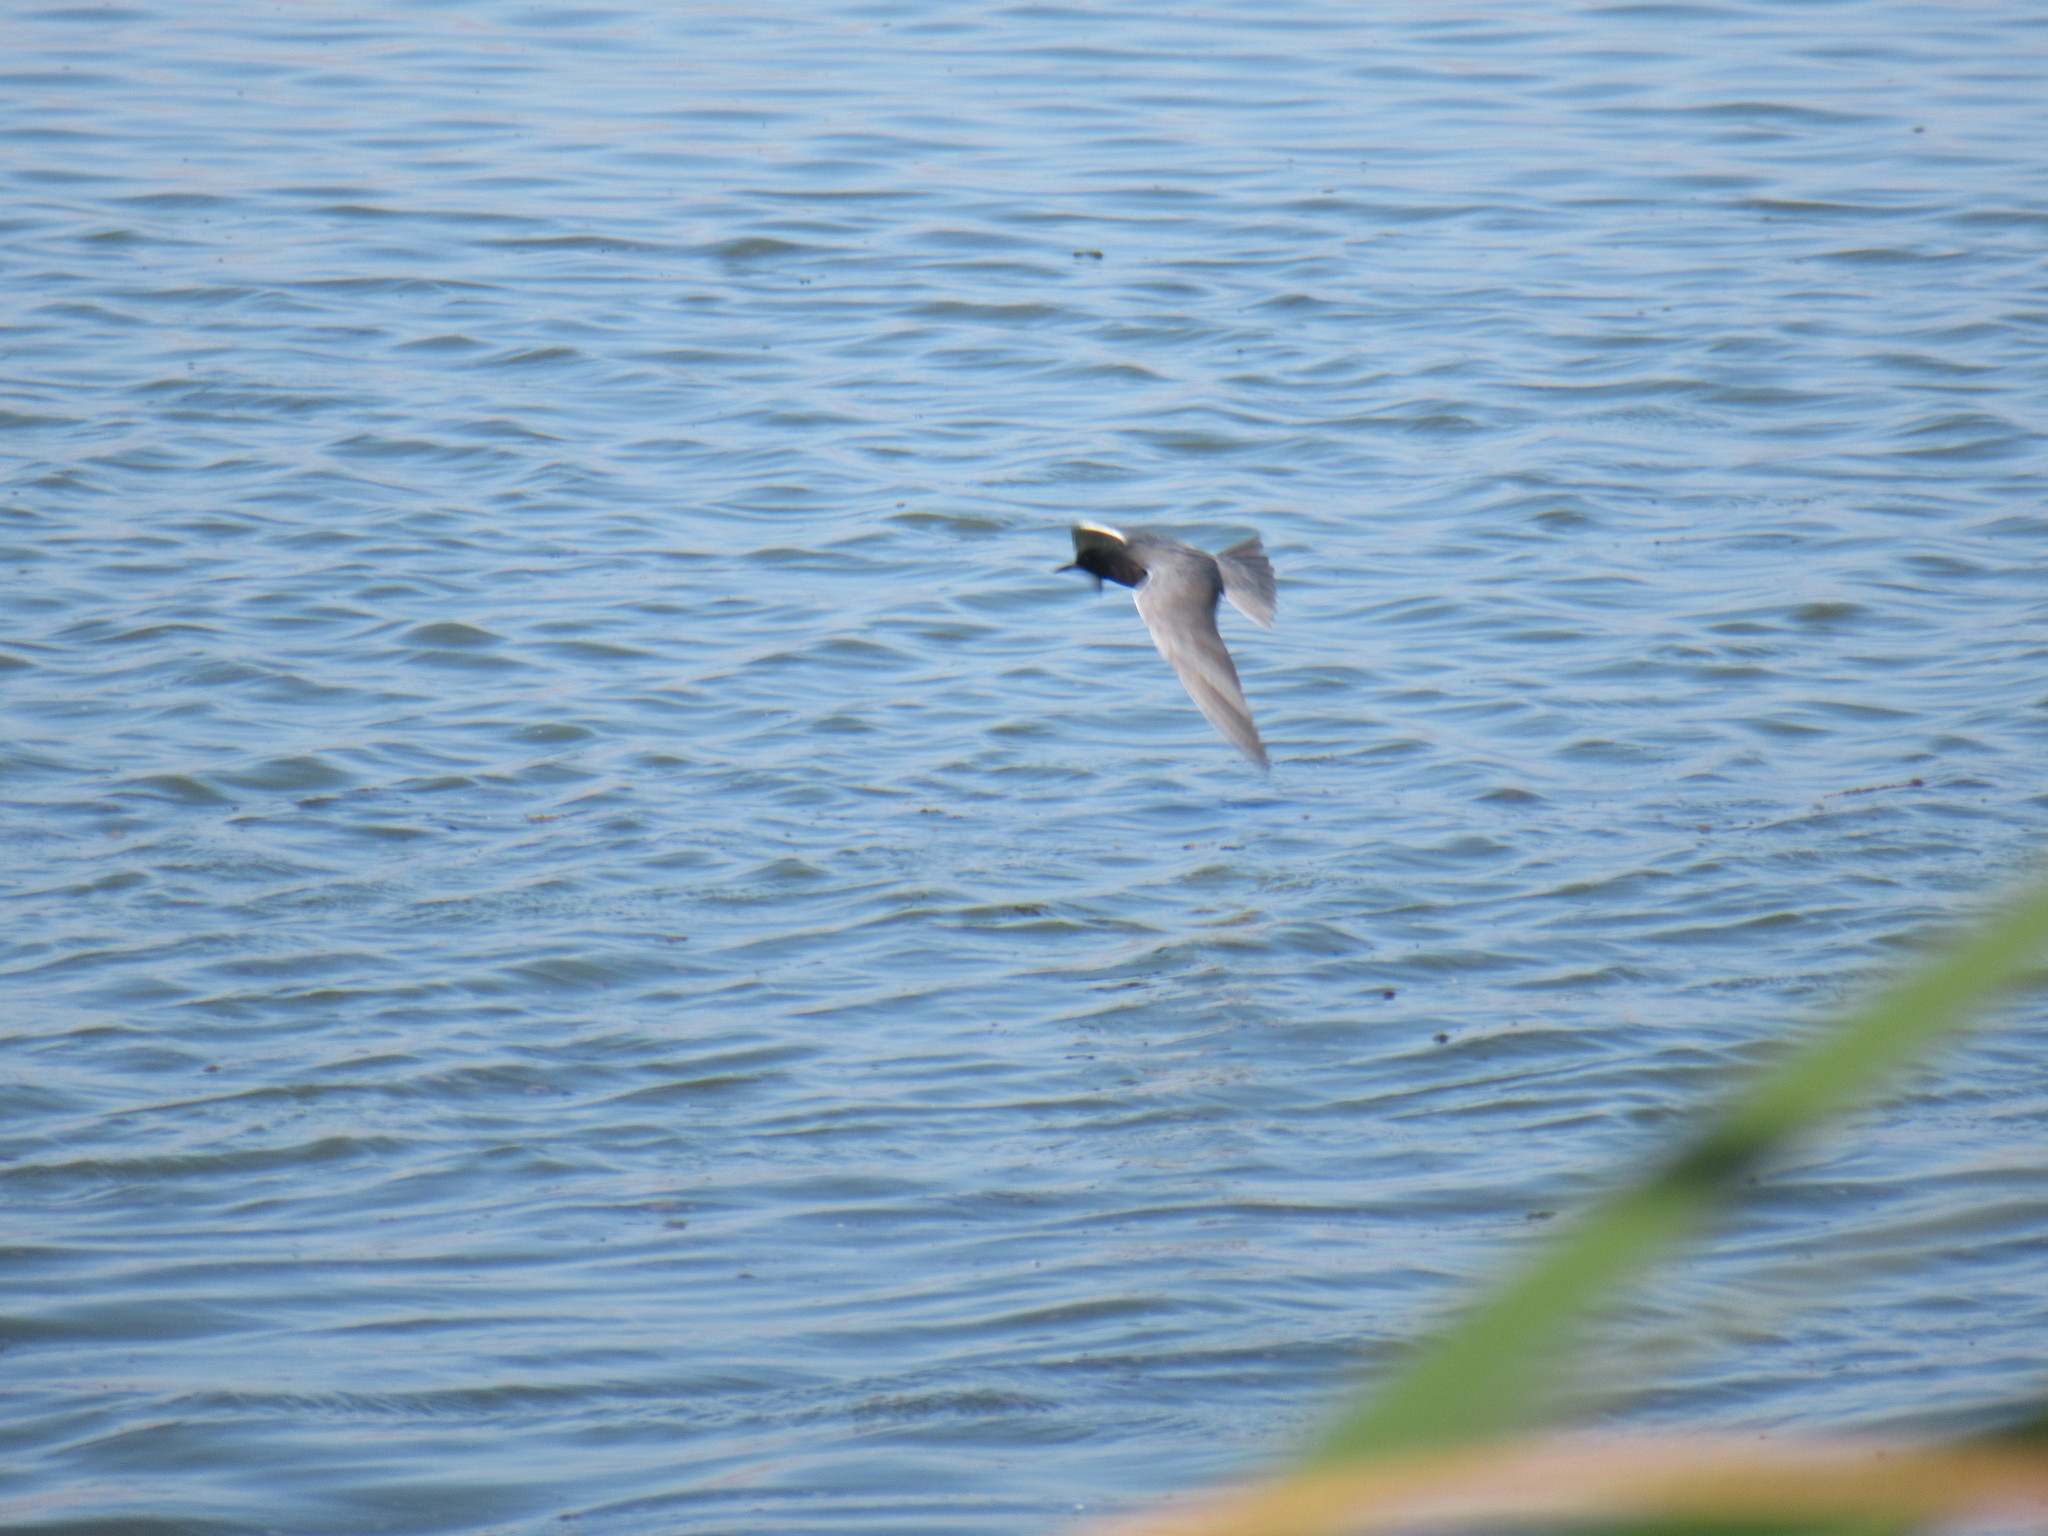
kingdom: Animalia
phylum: Chordata
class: Aves
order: Charadriiformes
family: Laridae
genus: Chlidonias
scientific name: Chlidonias niger
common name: Black tern
